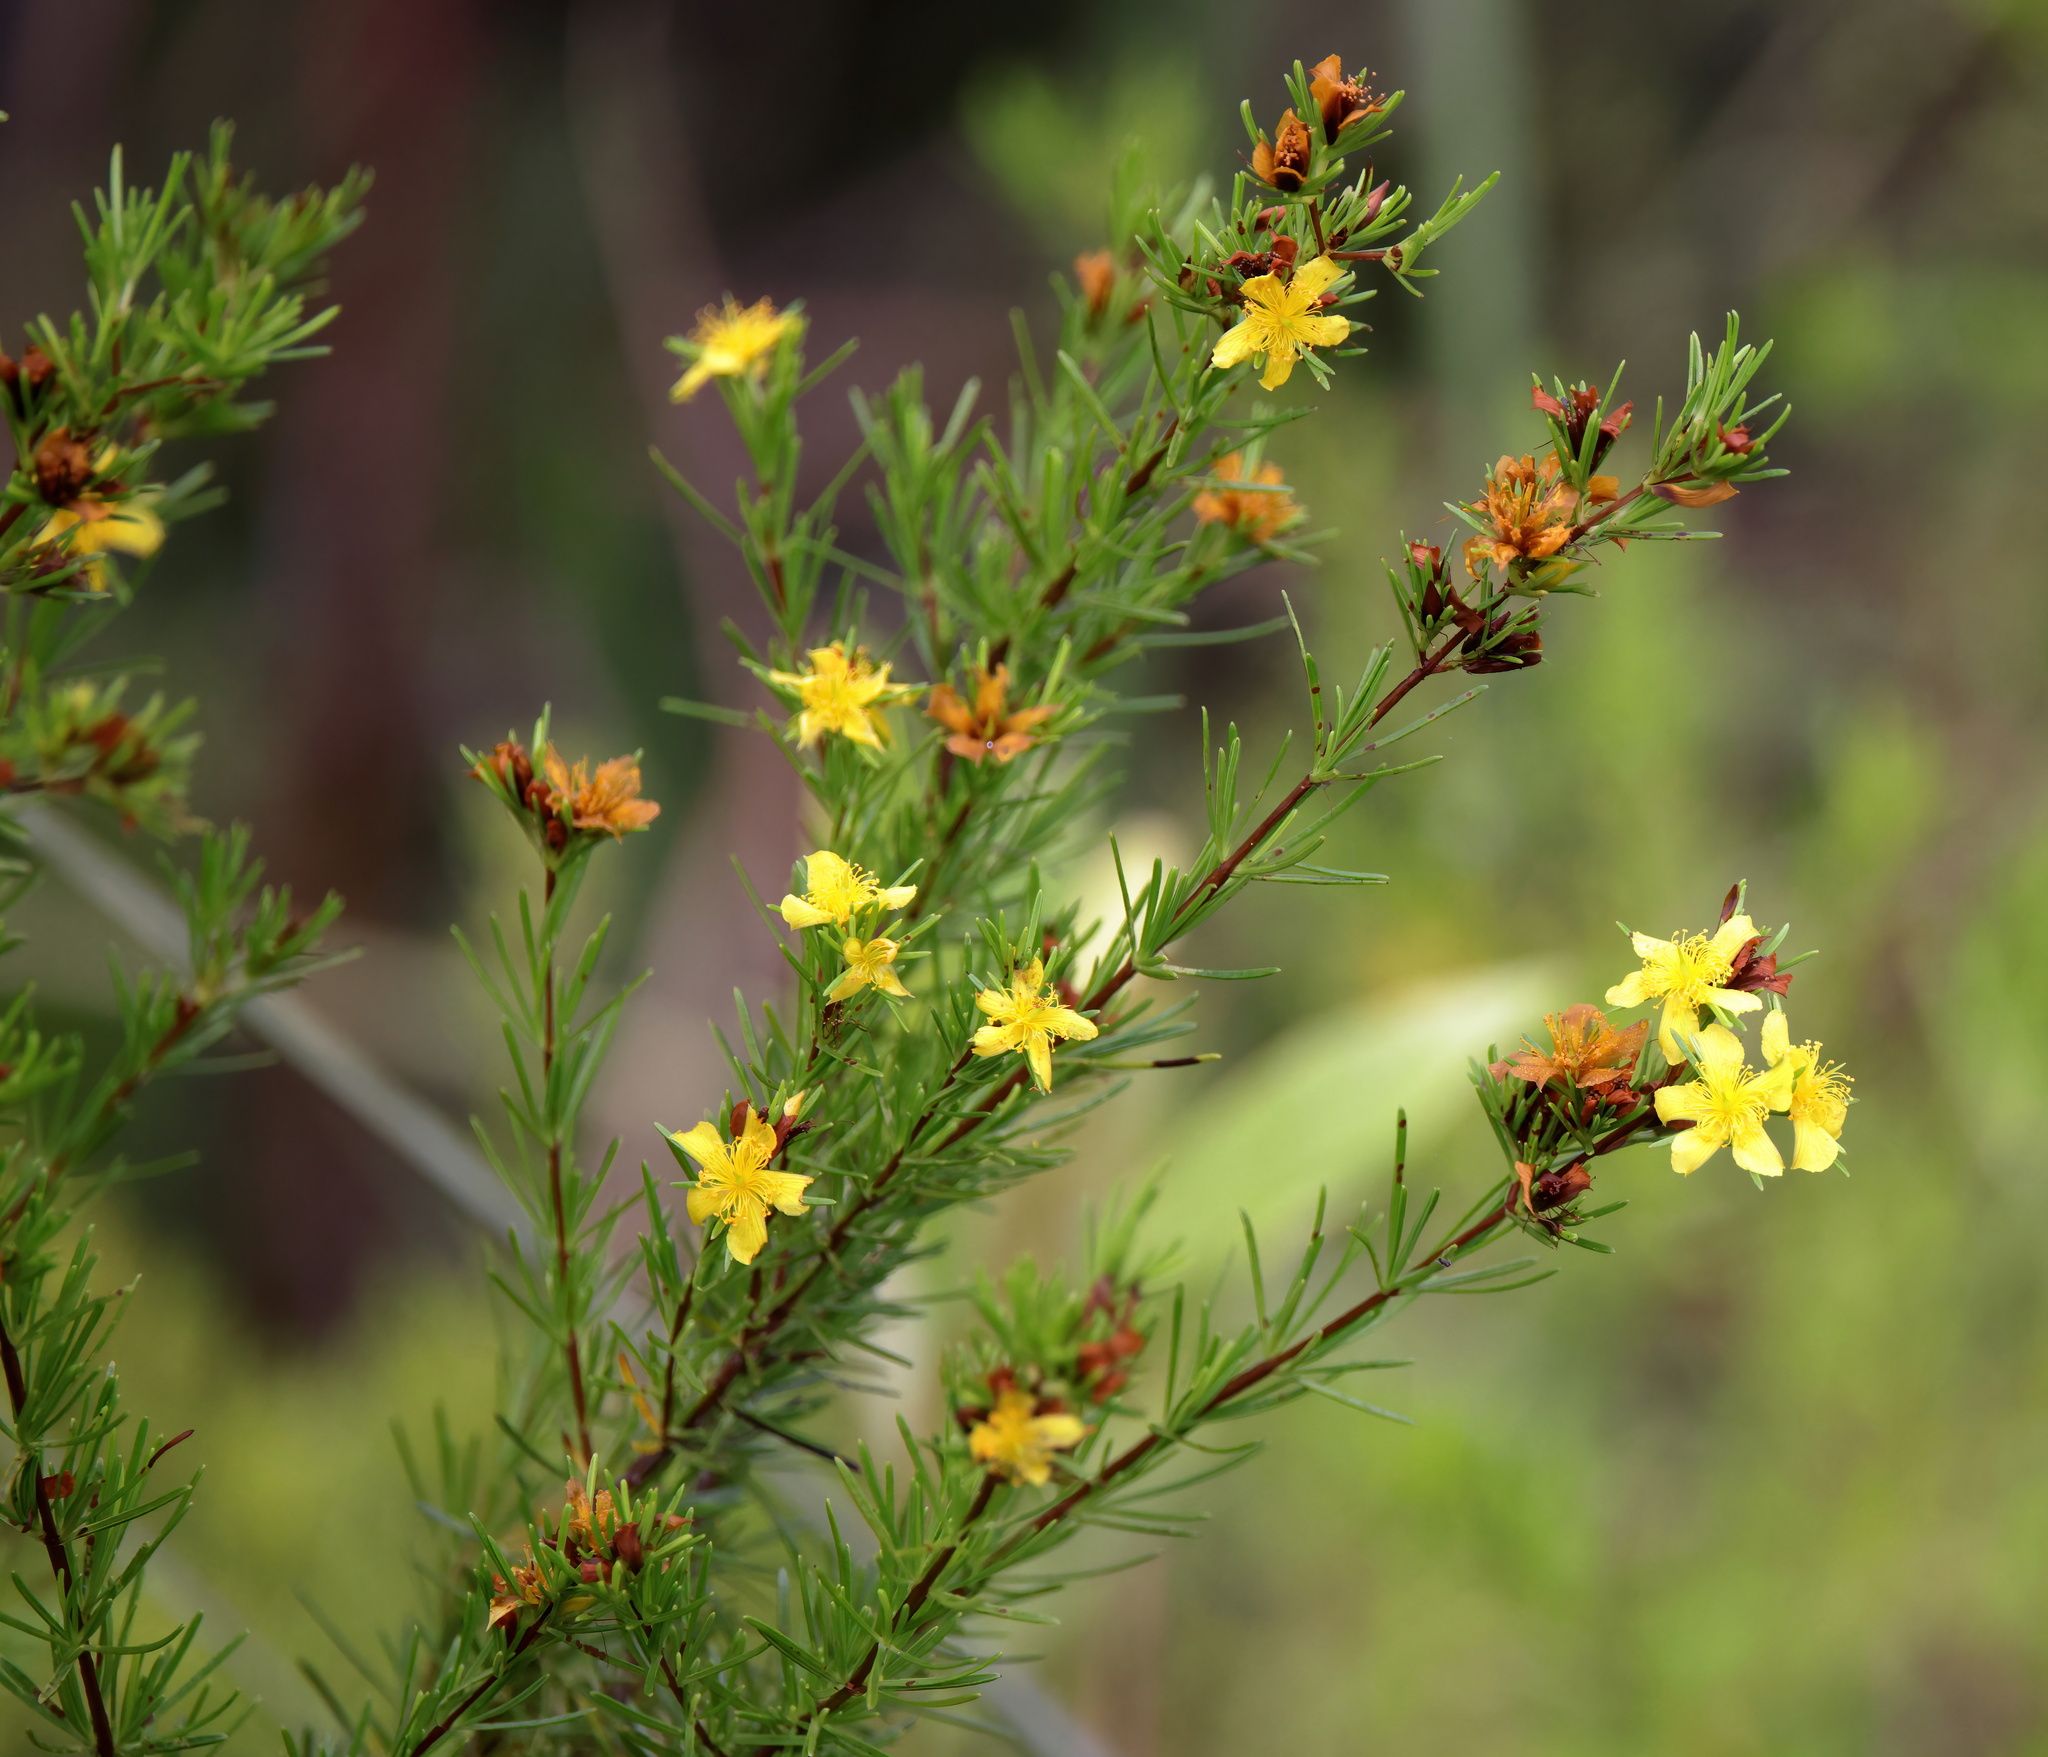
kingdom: Plantae
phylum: Tracheophyta
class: Magnoliopsida
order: Malpighiales
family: Hypericaceae
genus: Hypericum
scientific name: Hypericum fasciculatum
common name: Peelbark st. john's wort
